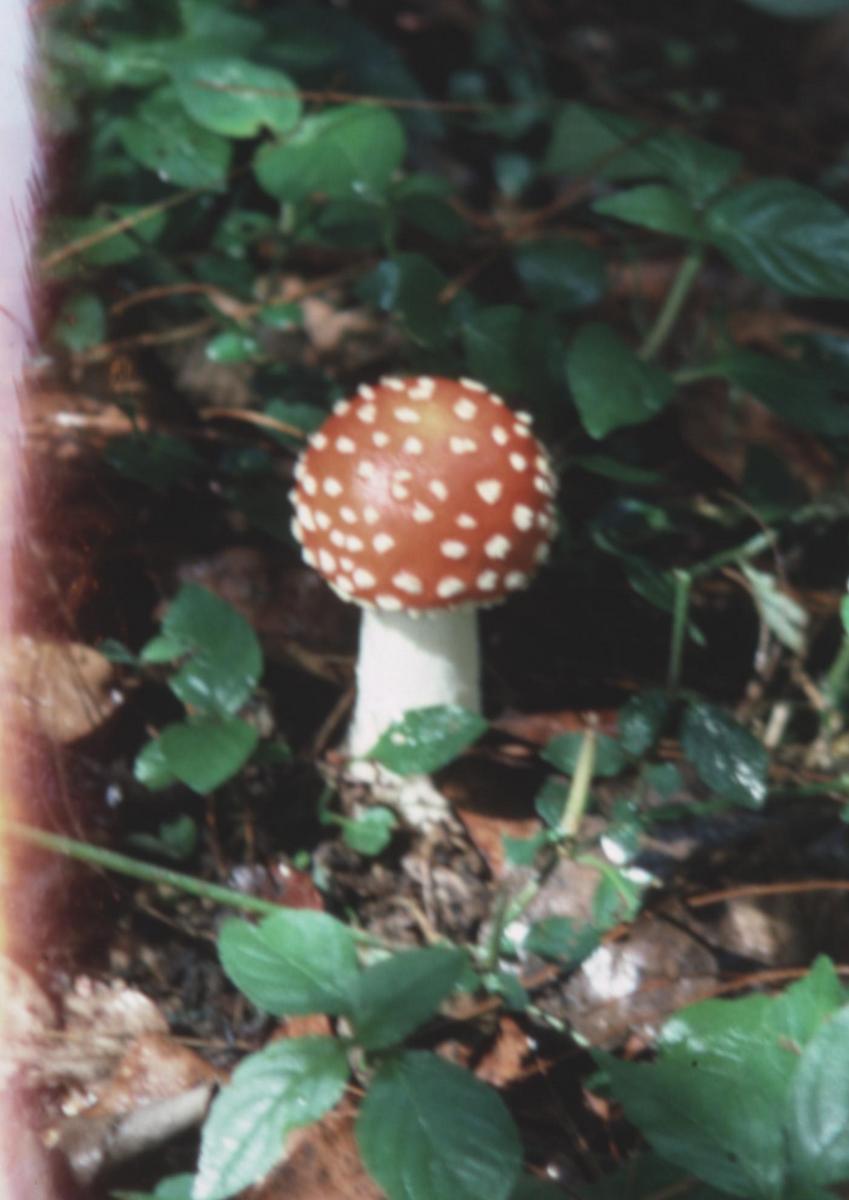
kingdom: Fungi
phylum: Basidiomycota
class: Agaricomycetes
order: Agaricales
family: Amanitaceae
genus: Amanita
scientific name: Amanita muscaria
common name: Fly agaric
